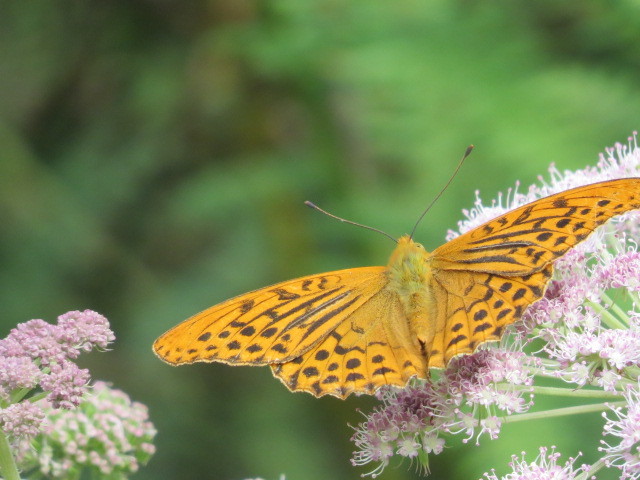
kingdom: Animalia
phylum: Arthropoda
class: Insecta
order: Lepidoptera
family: Nymphalidae
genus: Argynnis
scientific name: Argynnis paphia
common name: Silver-washed fritillary
